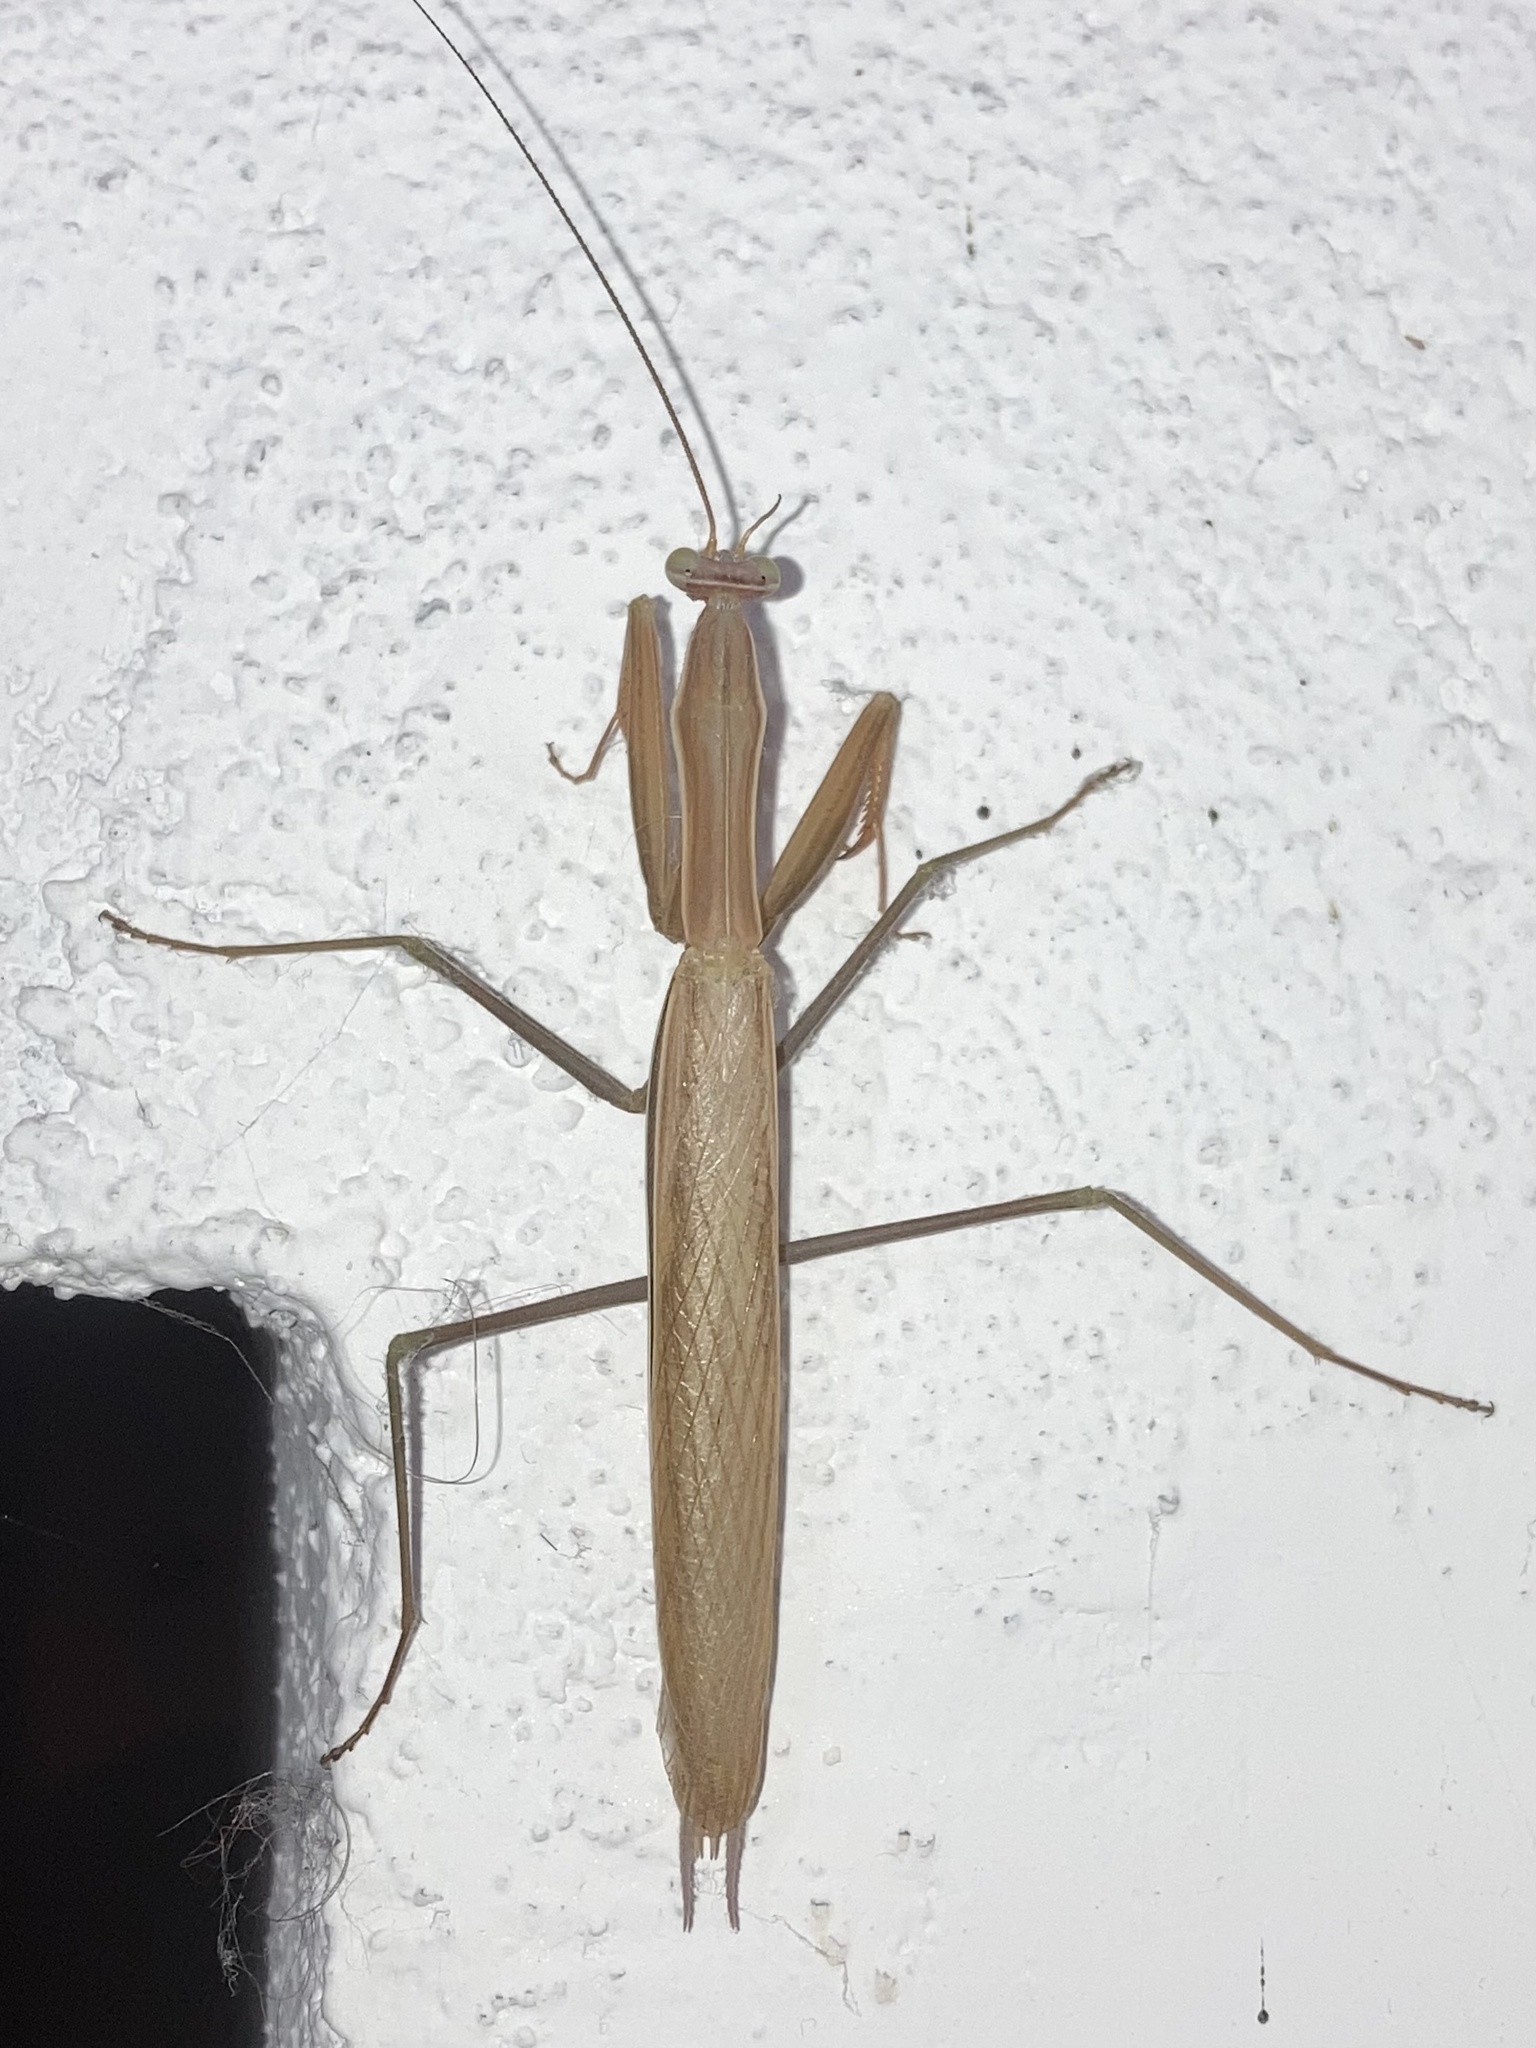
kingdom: Animalia
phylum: Arthropoda
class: Insecta
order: Mantodea
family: Mantidae
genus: Mantis
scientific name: Mantis religiosa
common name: Praying mantis
